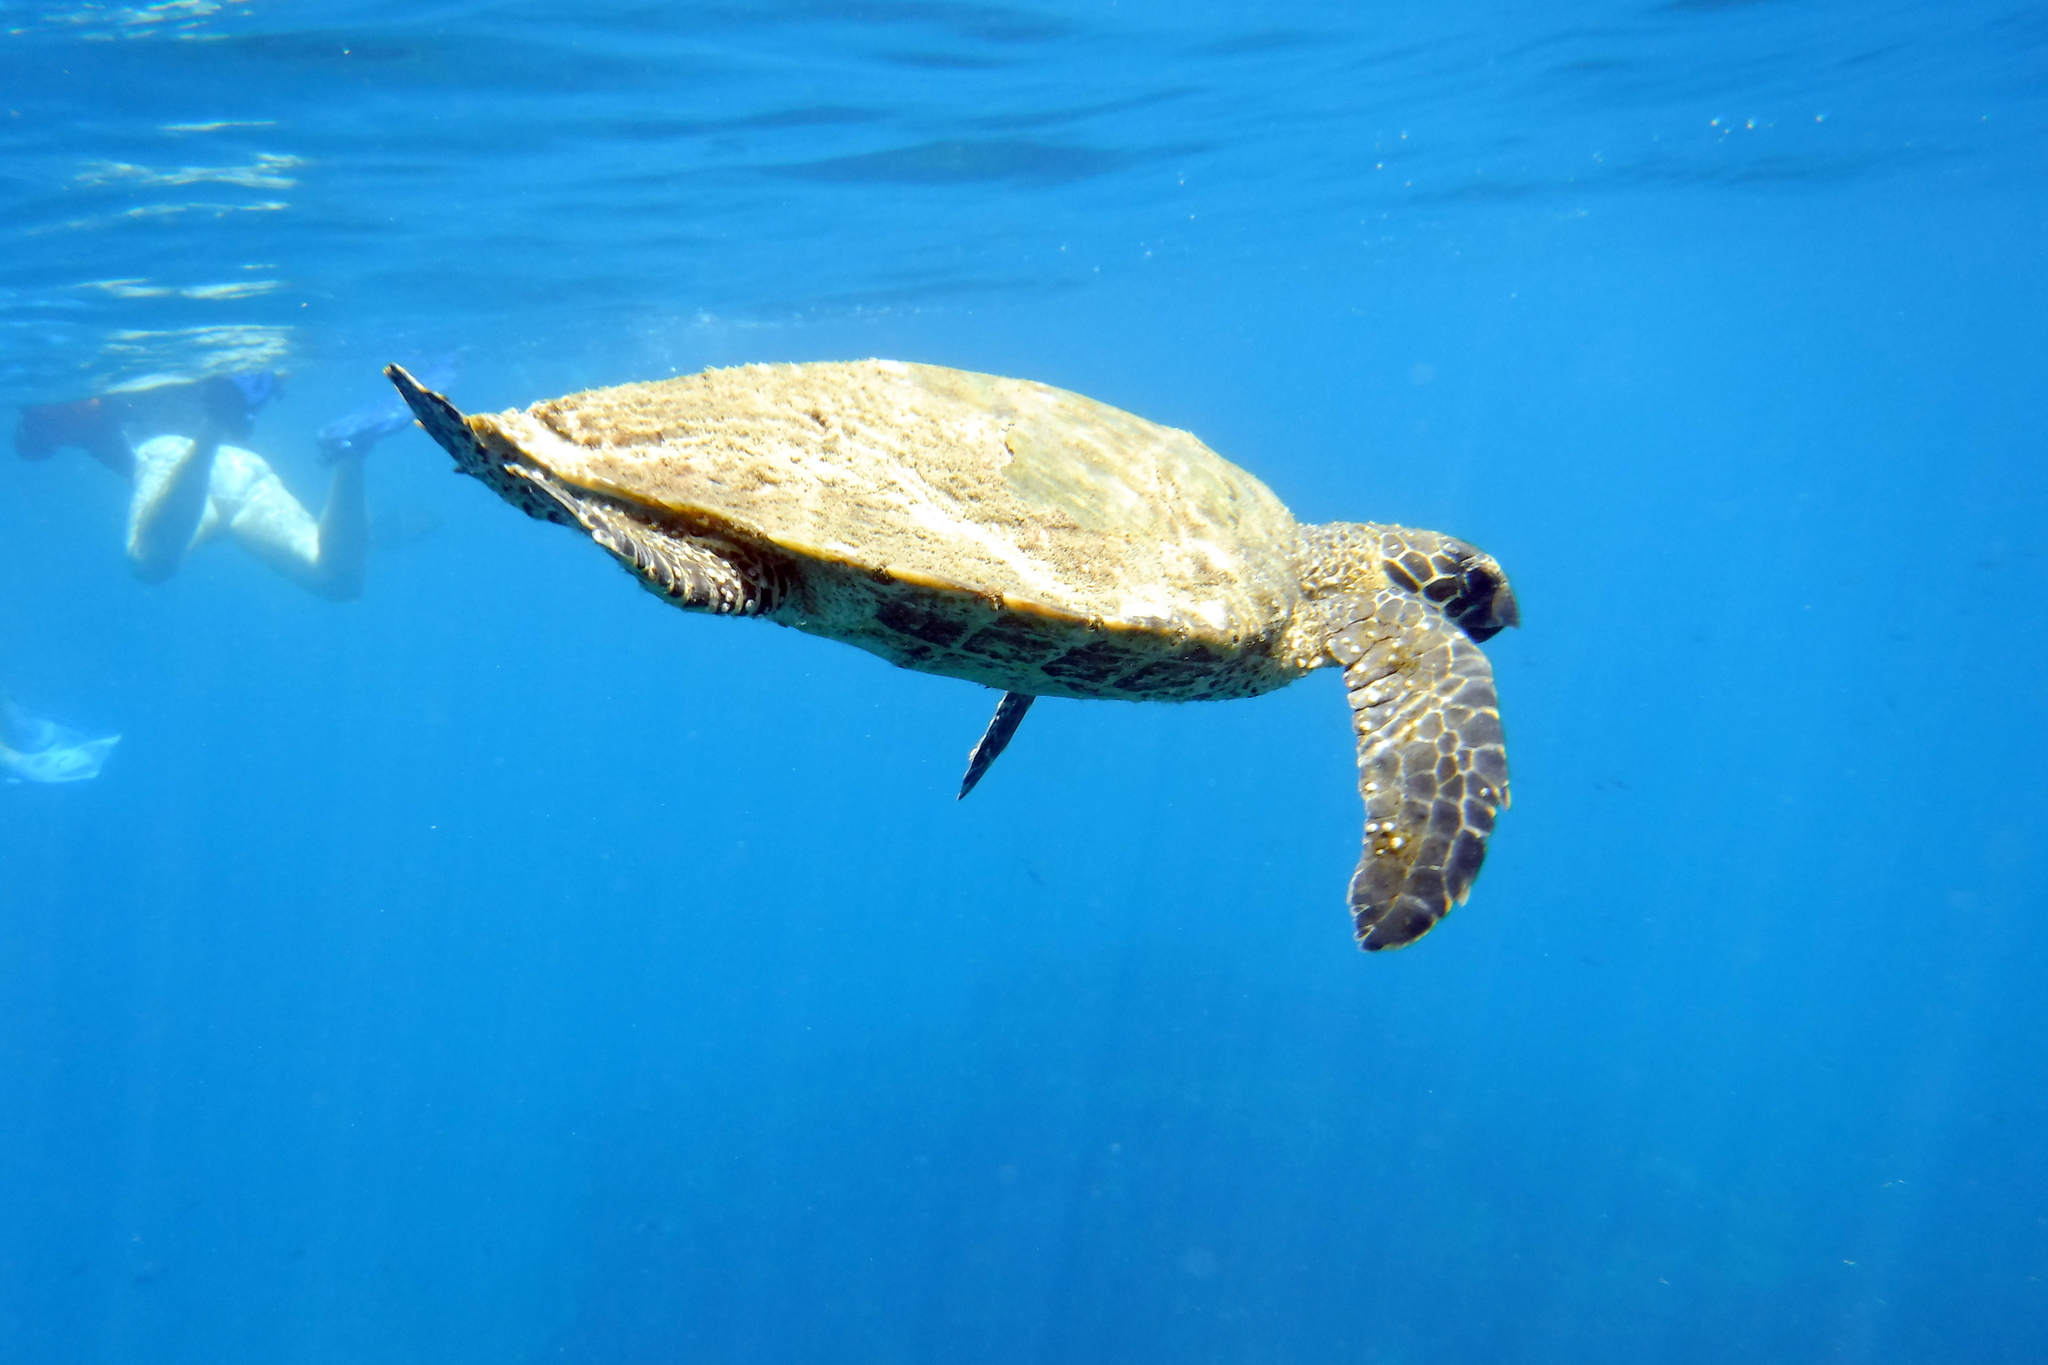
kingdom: Animalia
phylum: Chordata
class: Testudines
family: Cheloniidae
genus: Eretmochelys
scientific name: Eretmochelys imbricata
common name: Hawksbill turtle
